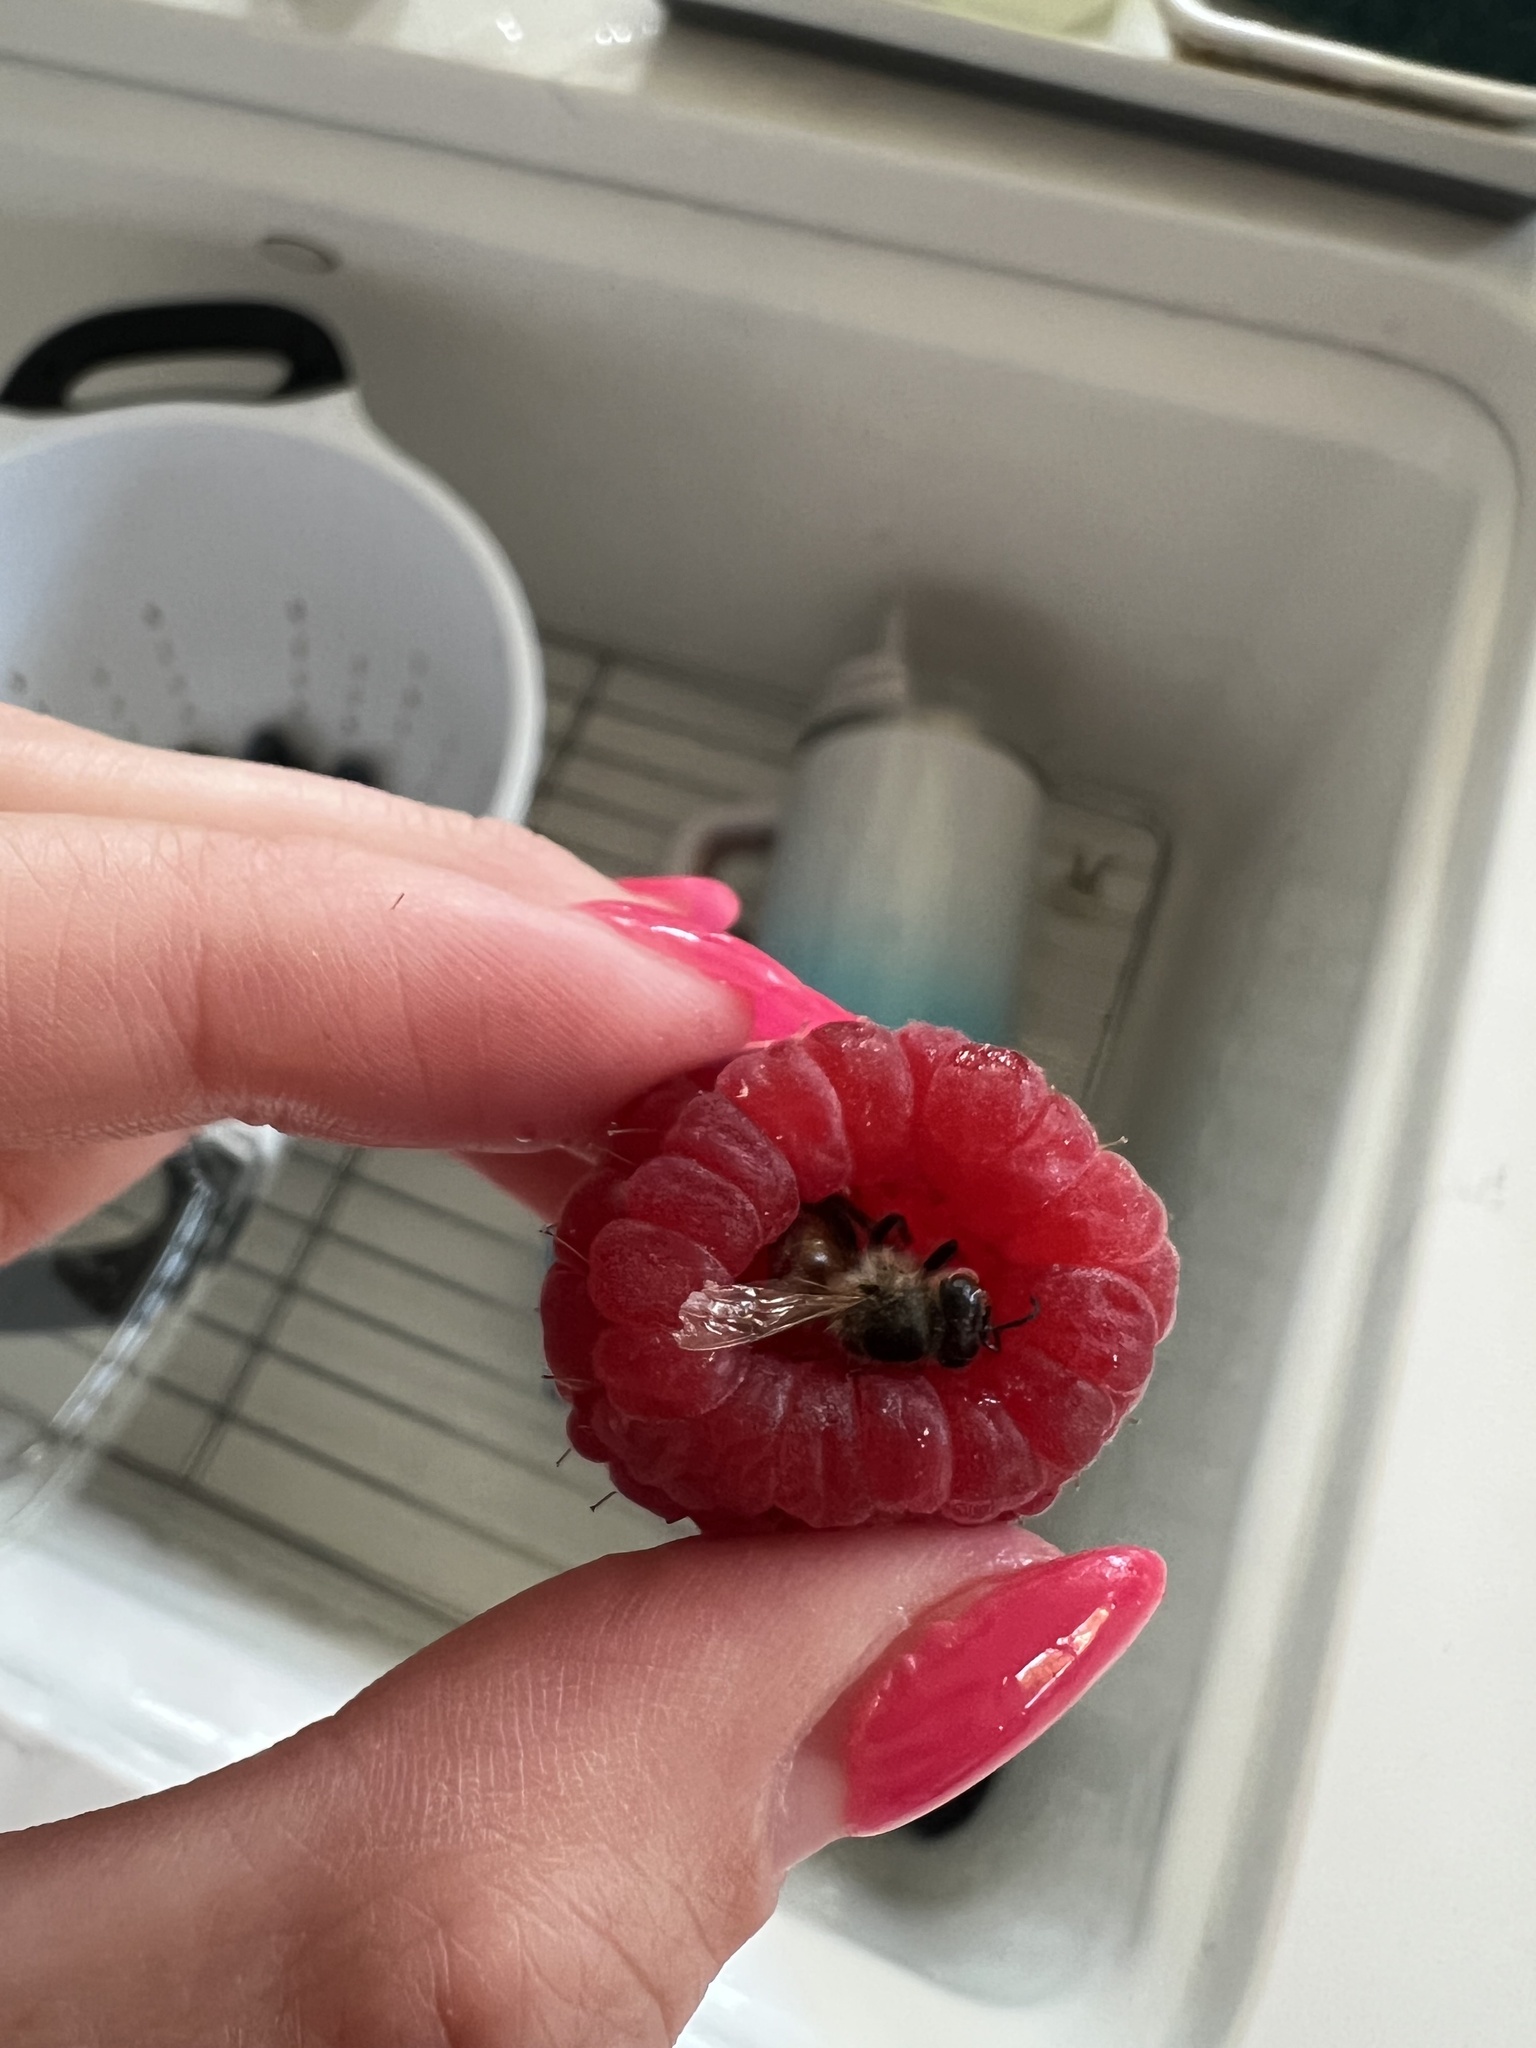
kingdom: Animalia
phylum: Arthropoda
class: Insecta
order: Hymenoptera
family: Apidae
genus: Apis
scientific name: Apis mellifera
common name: Honey bee
